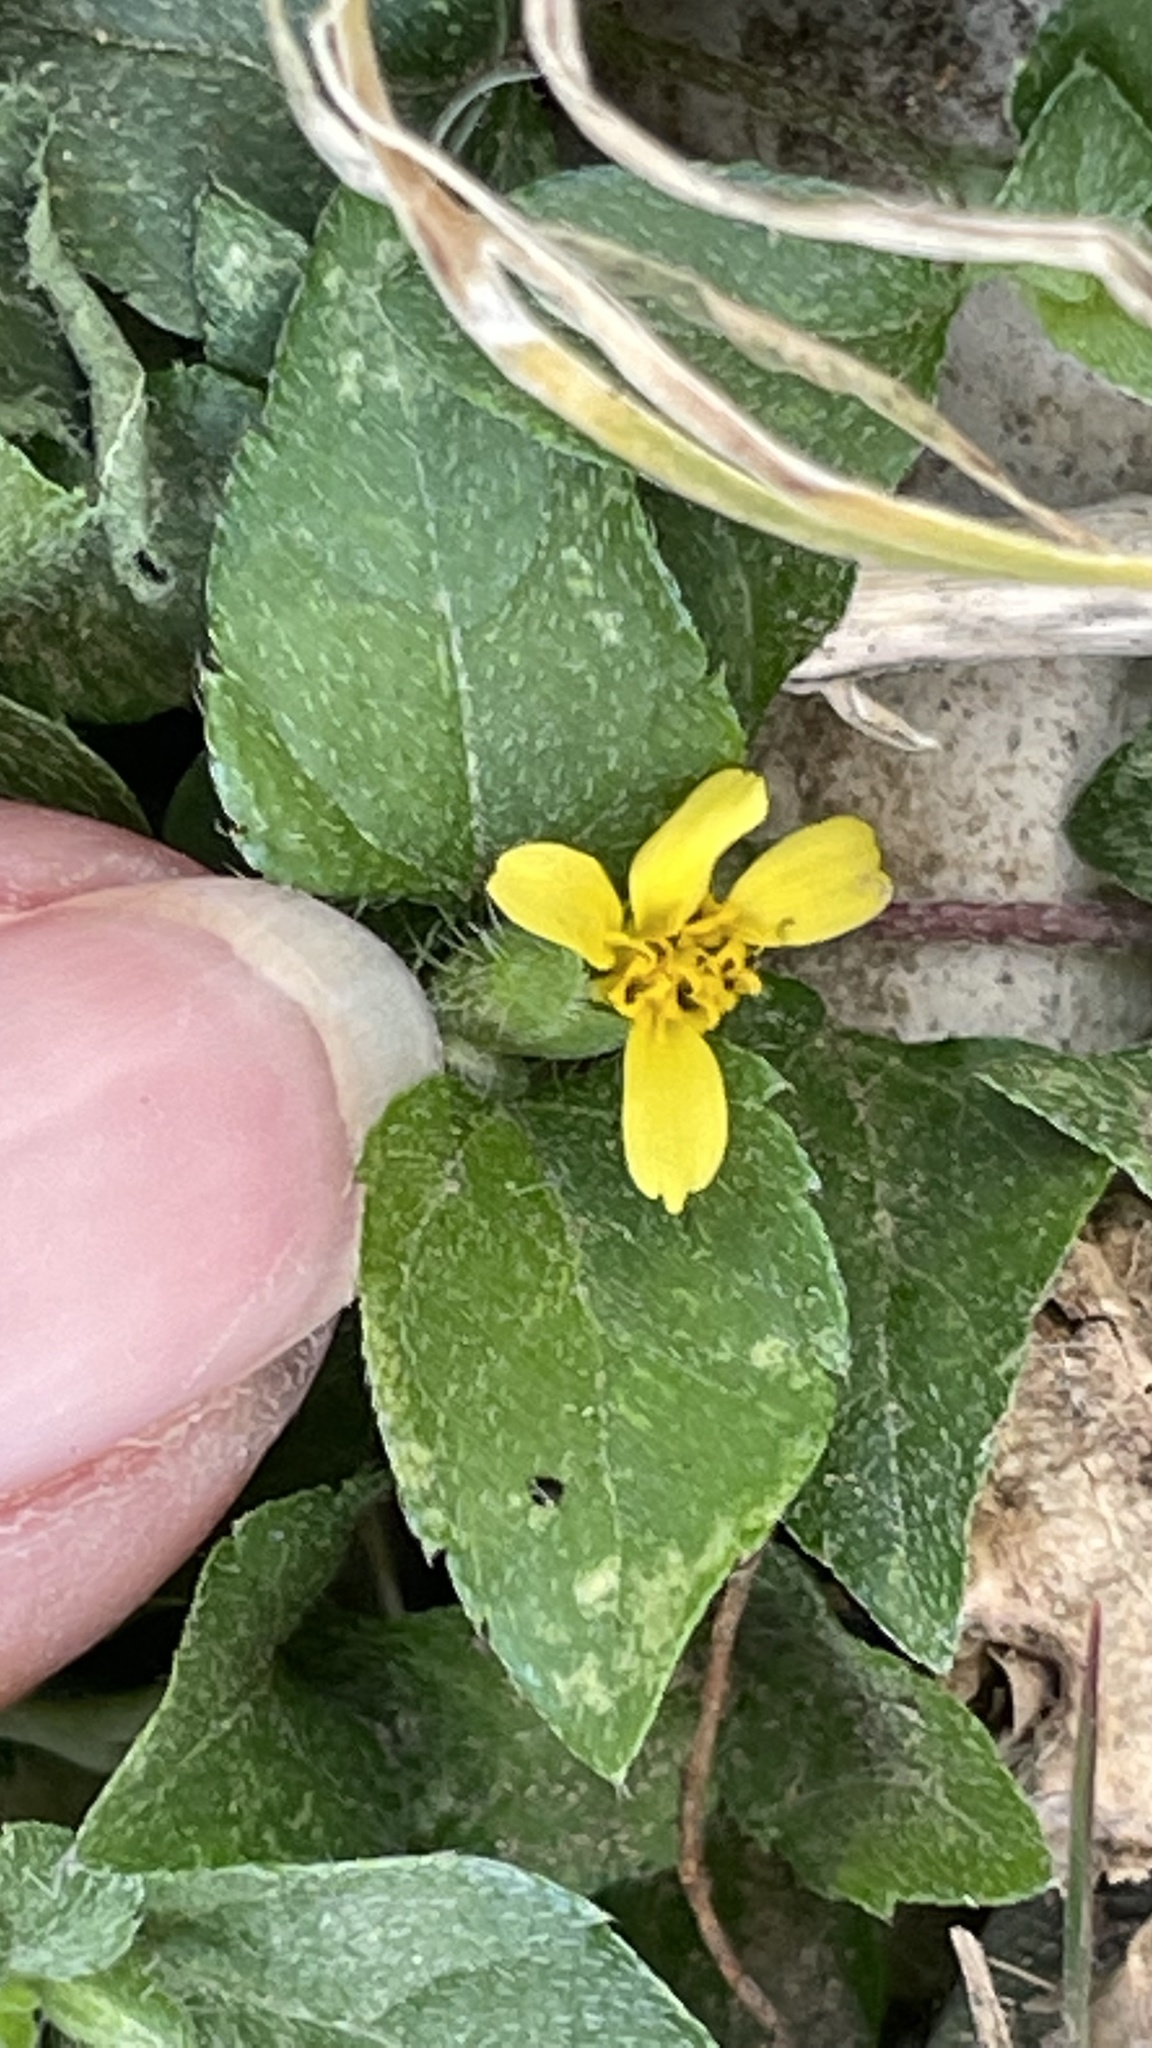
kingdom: Plantae
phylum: Tracheophyta
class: Magnoliopsida
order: Asterales
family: Asteraceae
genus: Calyptocarpus
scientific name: Calyptocarpus vialis
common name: Straggler daisy
